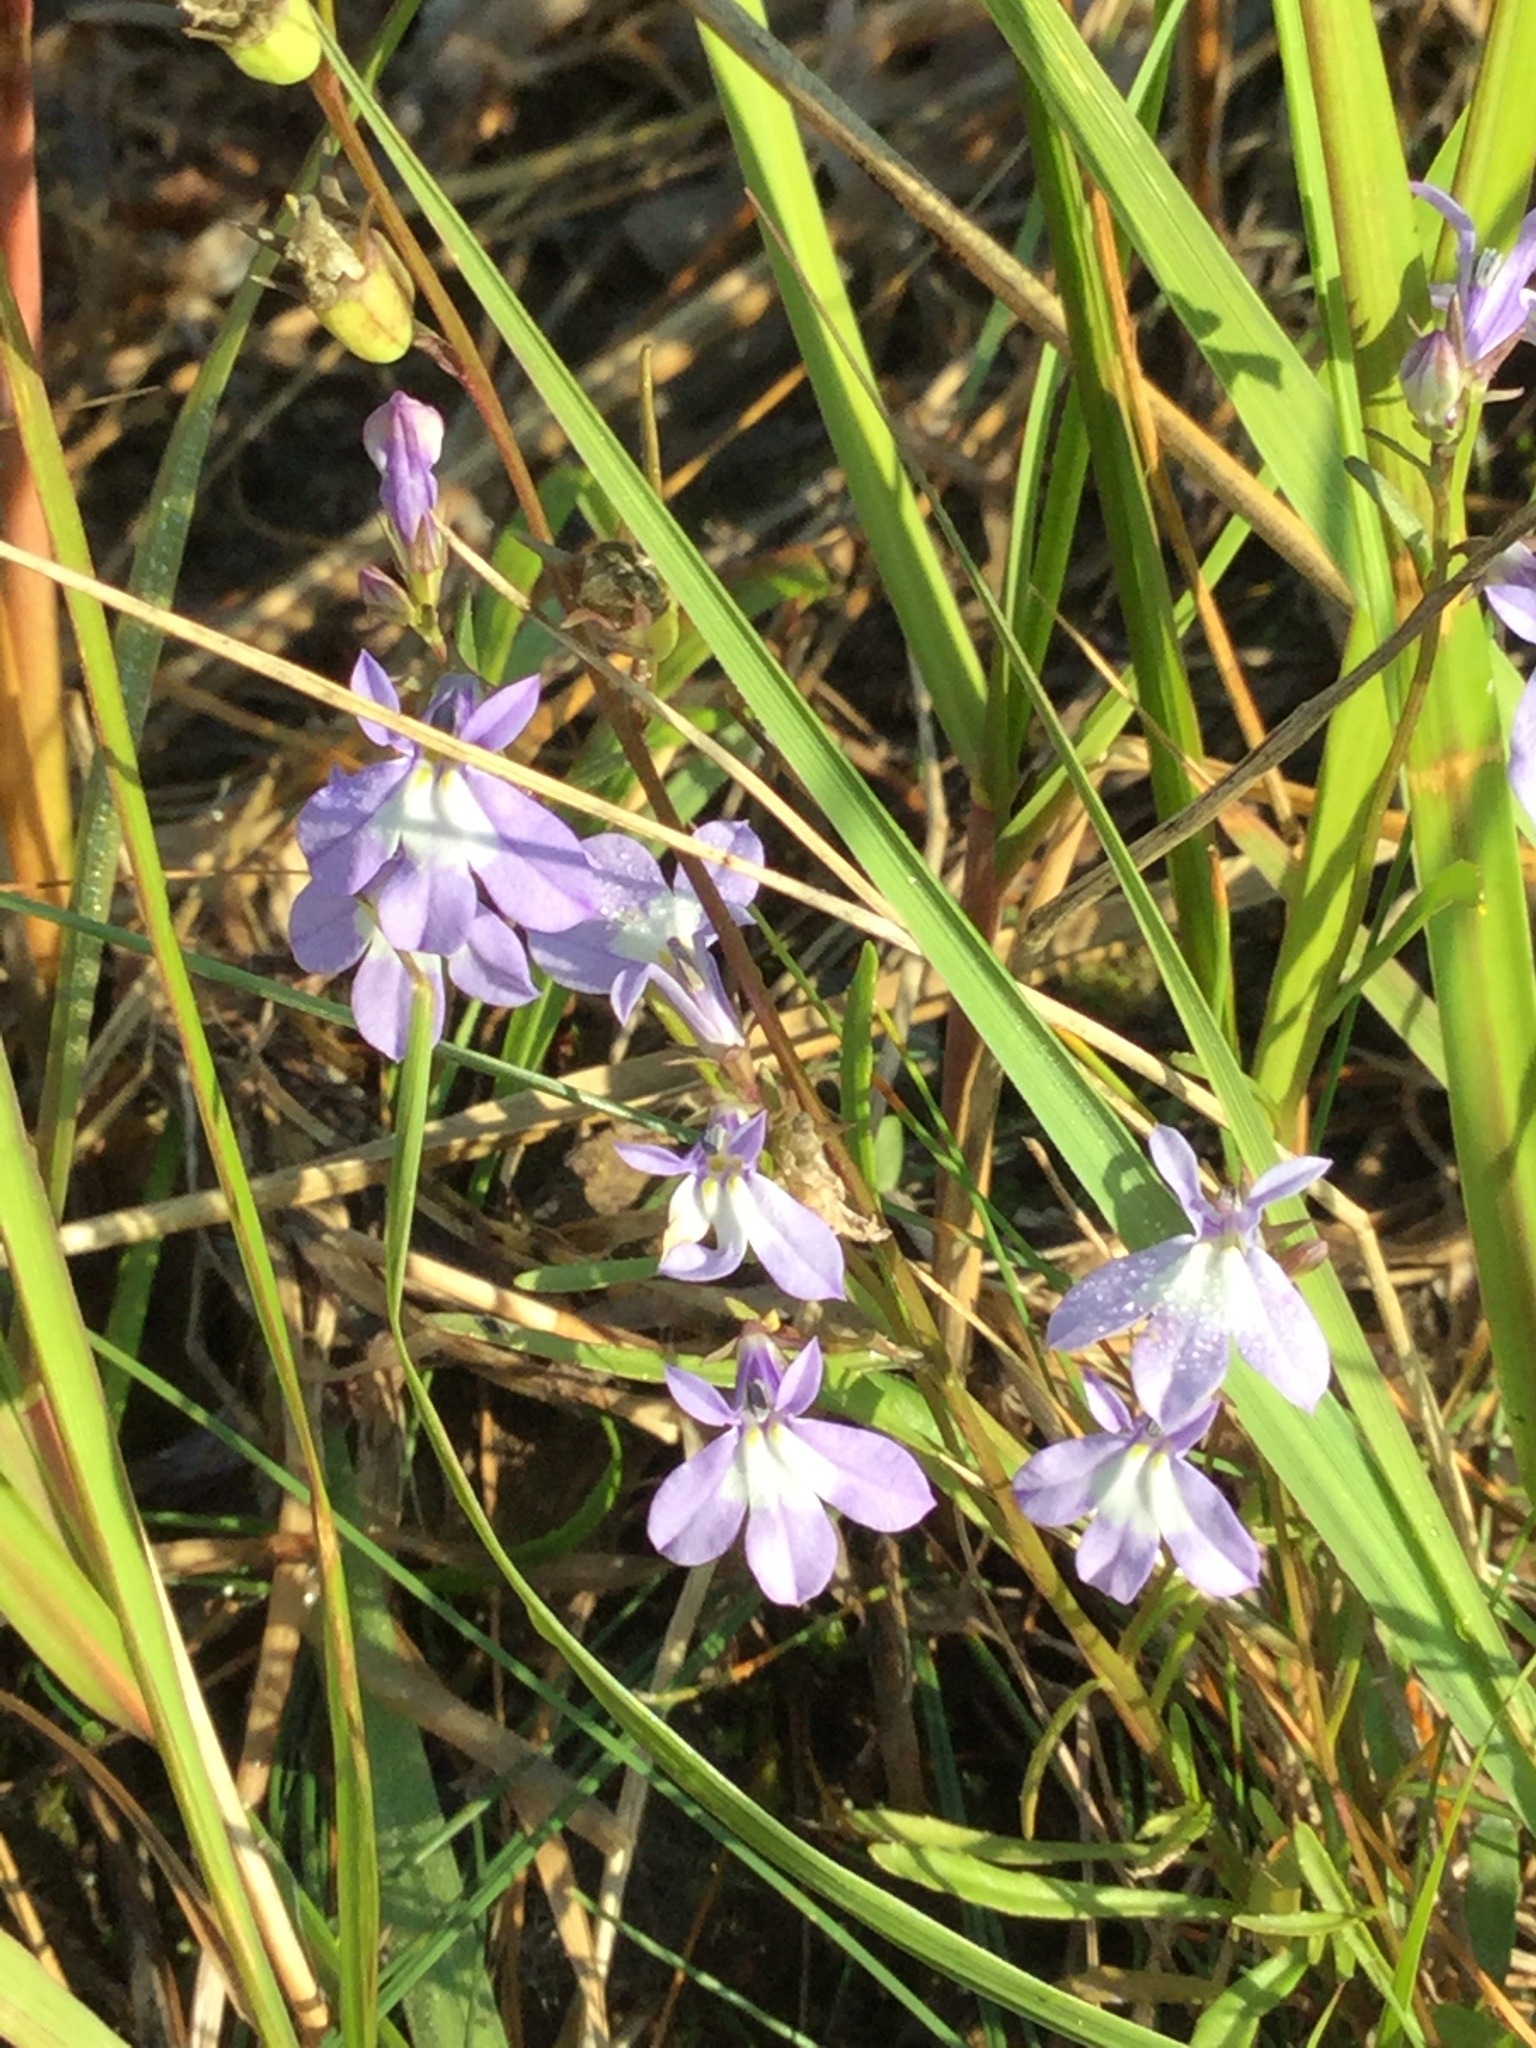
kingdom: Plantae
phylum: Tracheophyta
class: Magnoliopsida
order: Asterales
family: Campanulaceae
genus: Lobelia
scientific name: Lobelia kalmii
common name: Kalm's lobelia
